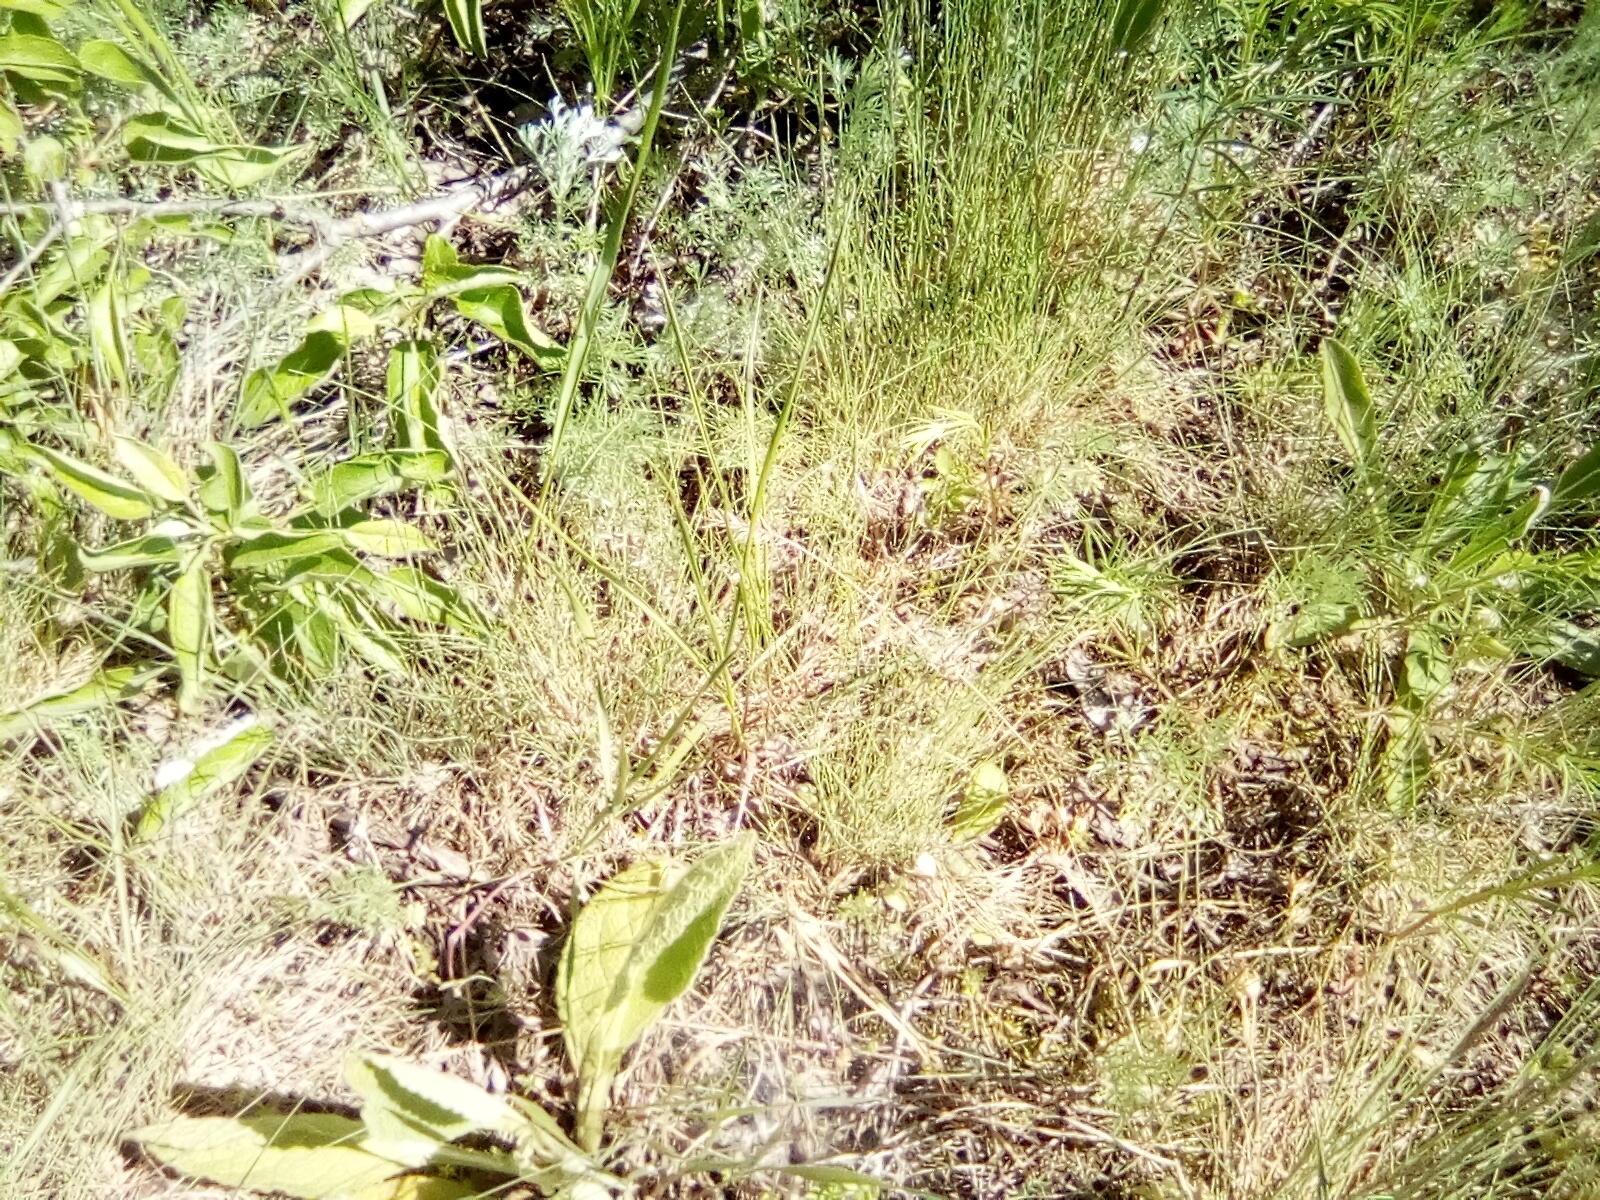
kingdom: Plantae
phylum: Tracheophyta
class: Magnoliopsida
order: Asterales
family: Asteraceae
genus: Artemisia
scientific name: Artemisia austriaca
